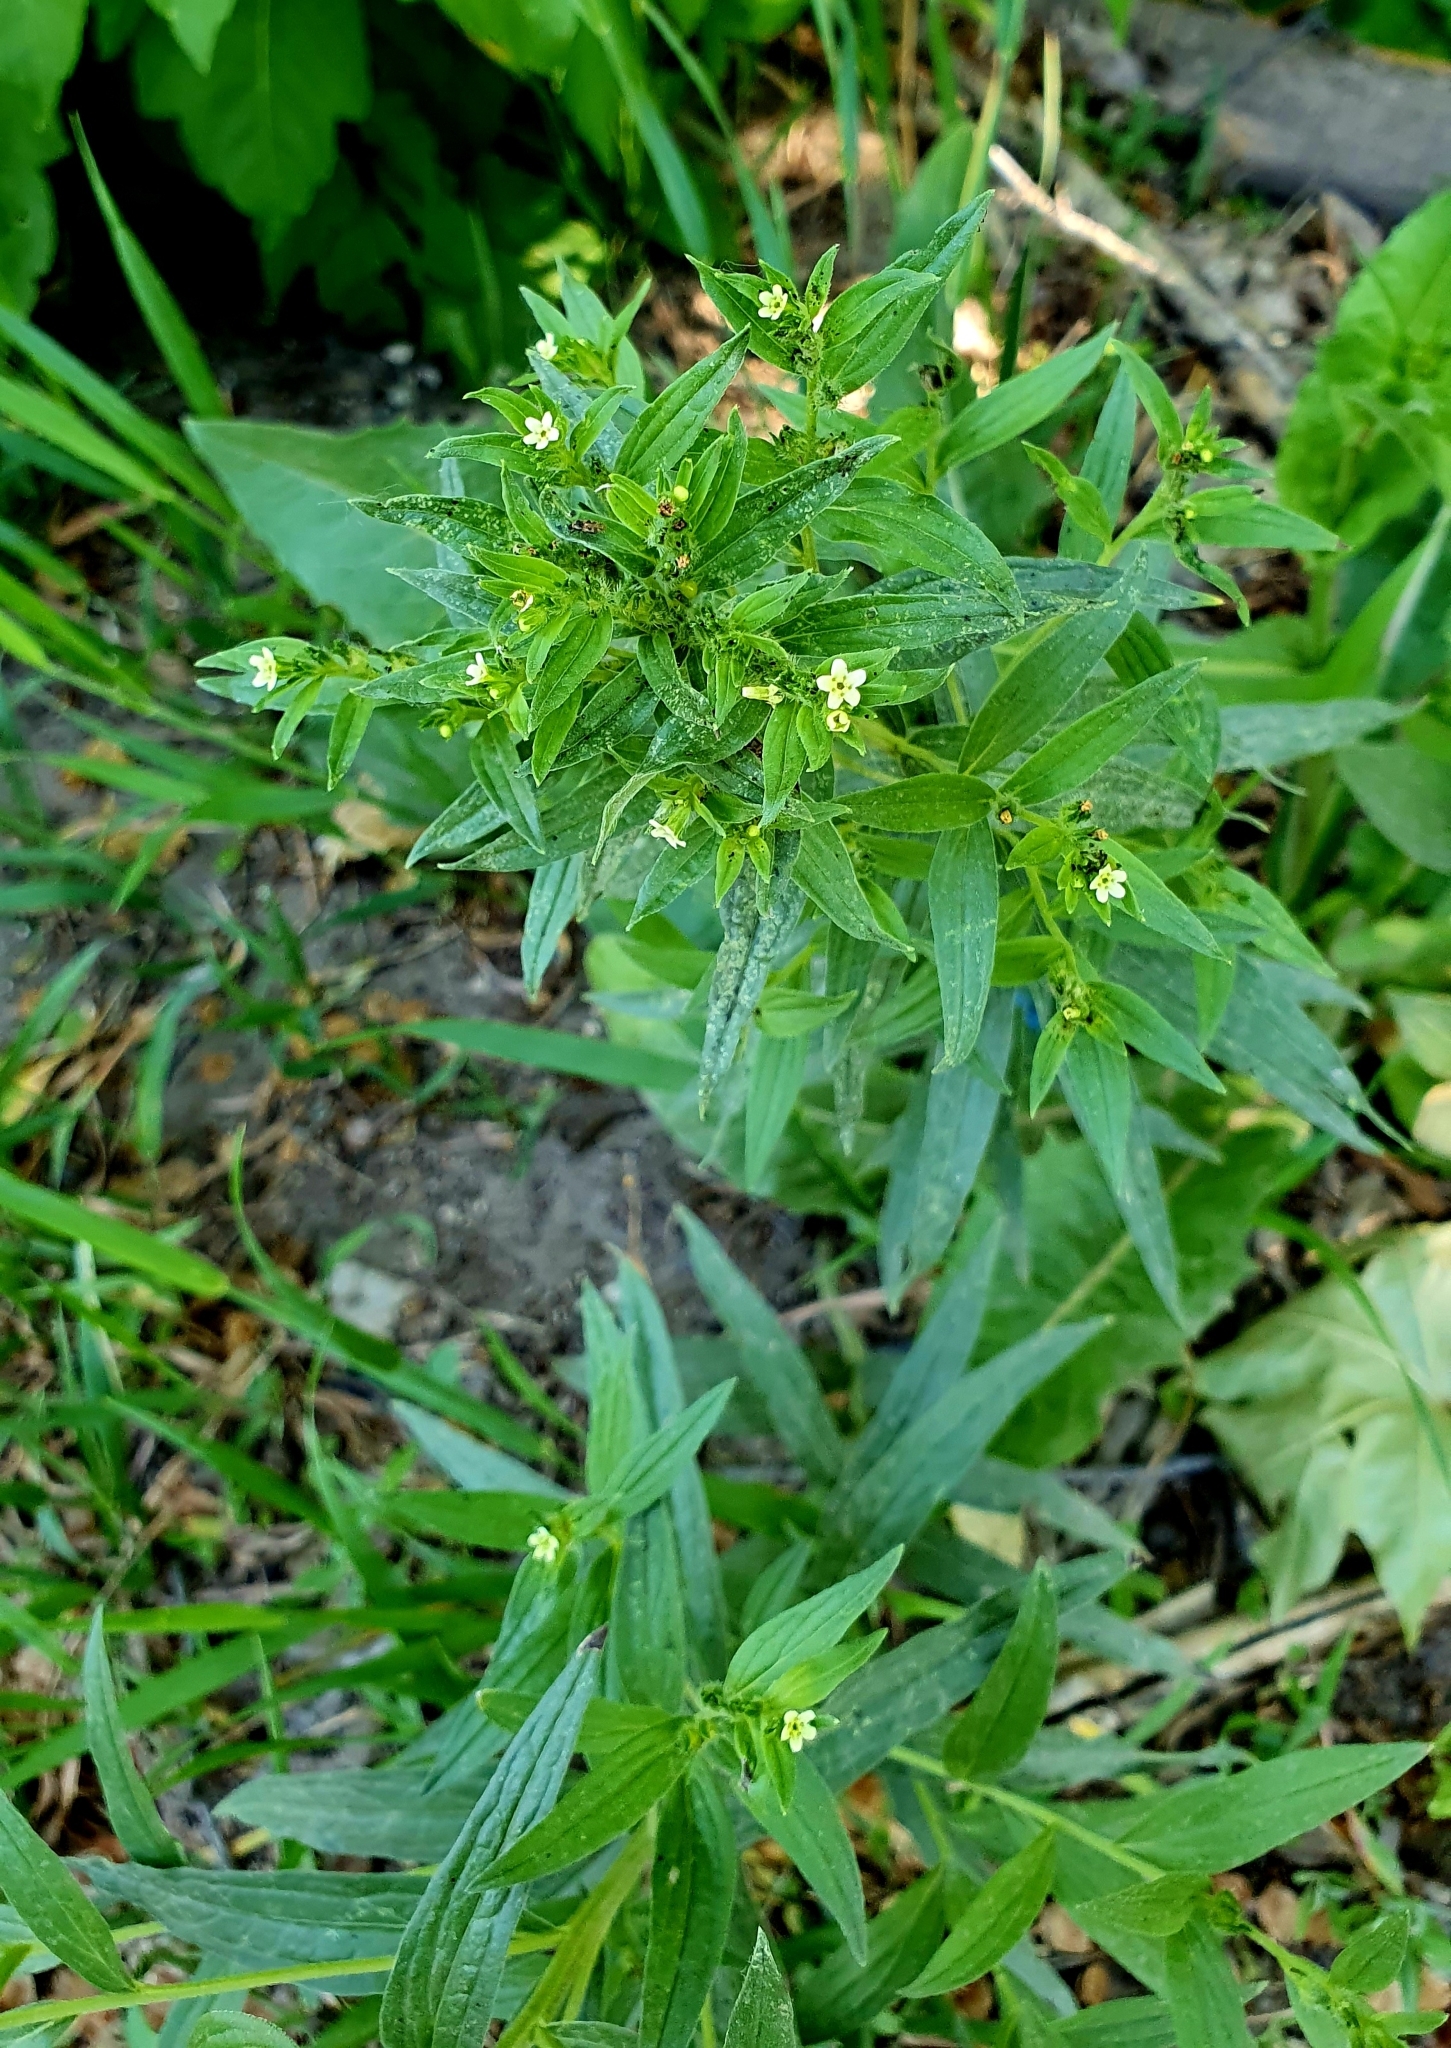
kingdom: Plantae
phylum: Tracheophyta
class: Magnoliopsida
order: Boraginales
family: Boraginaceae
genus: Lithospermum
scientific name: Lithospermum officinale
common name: Common gromwell
